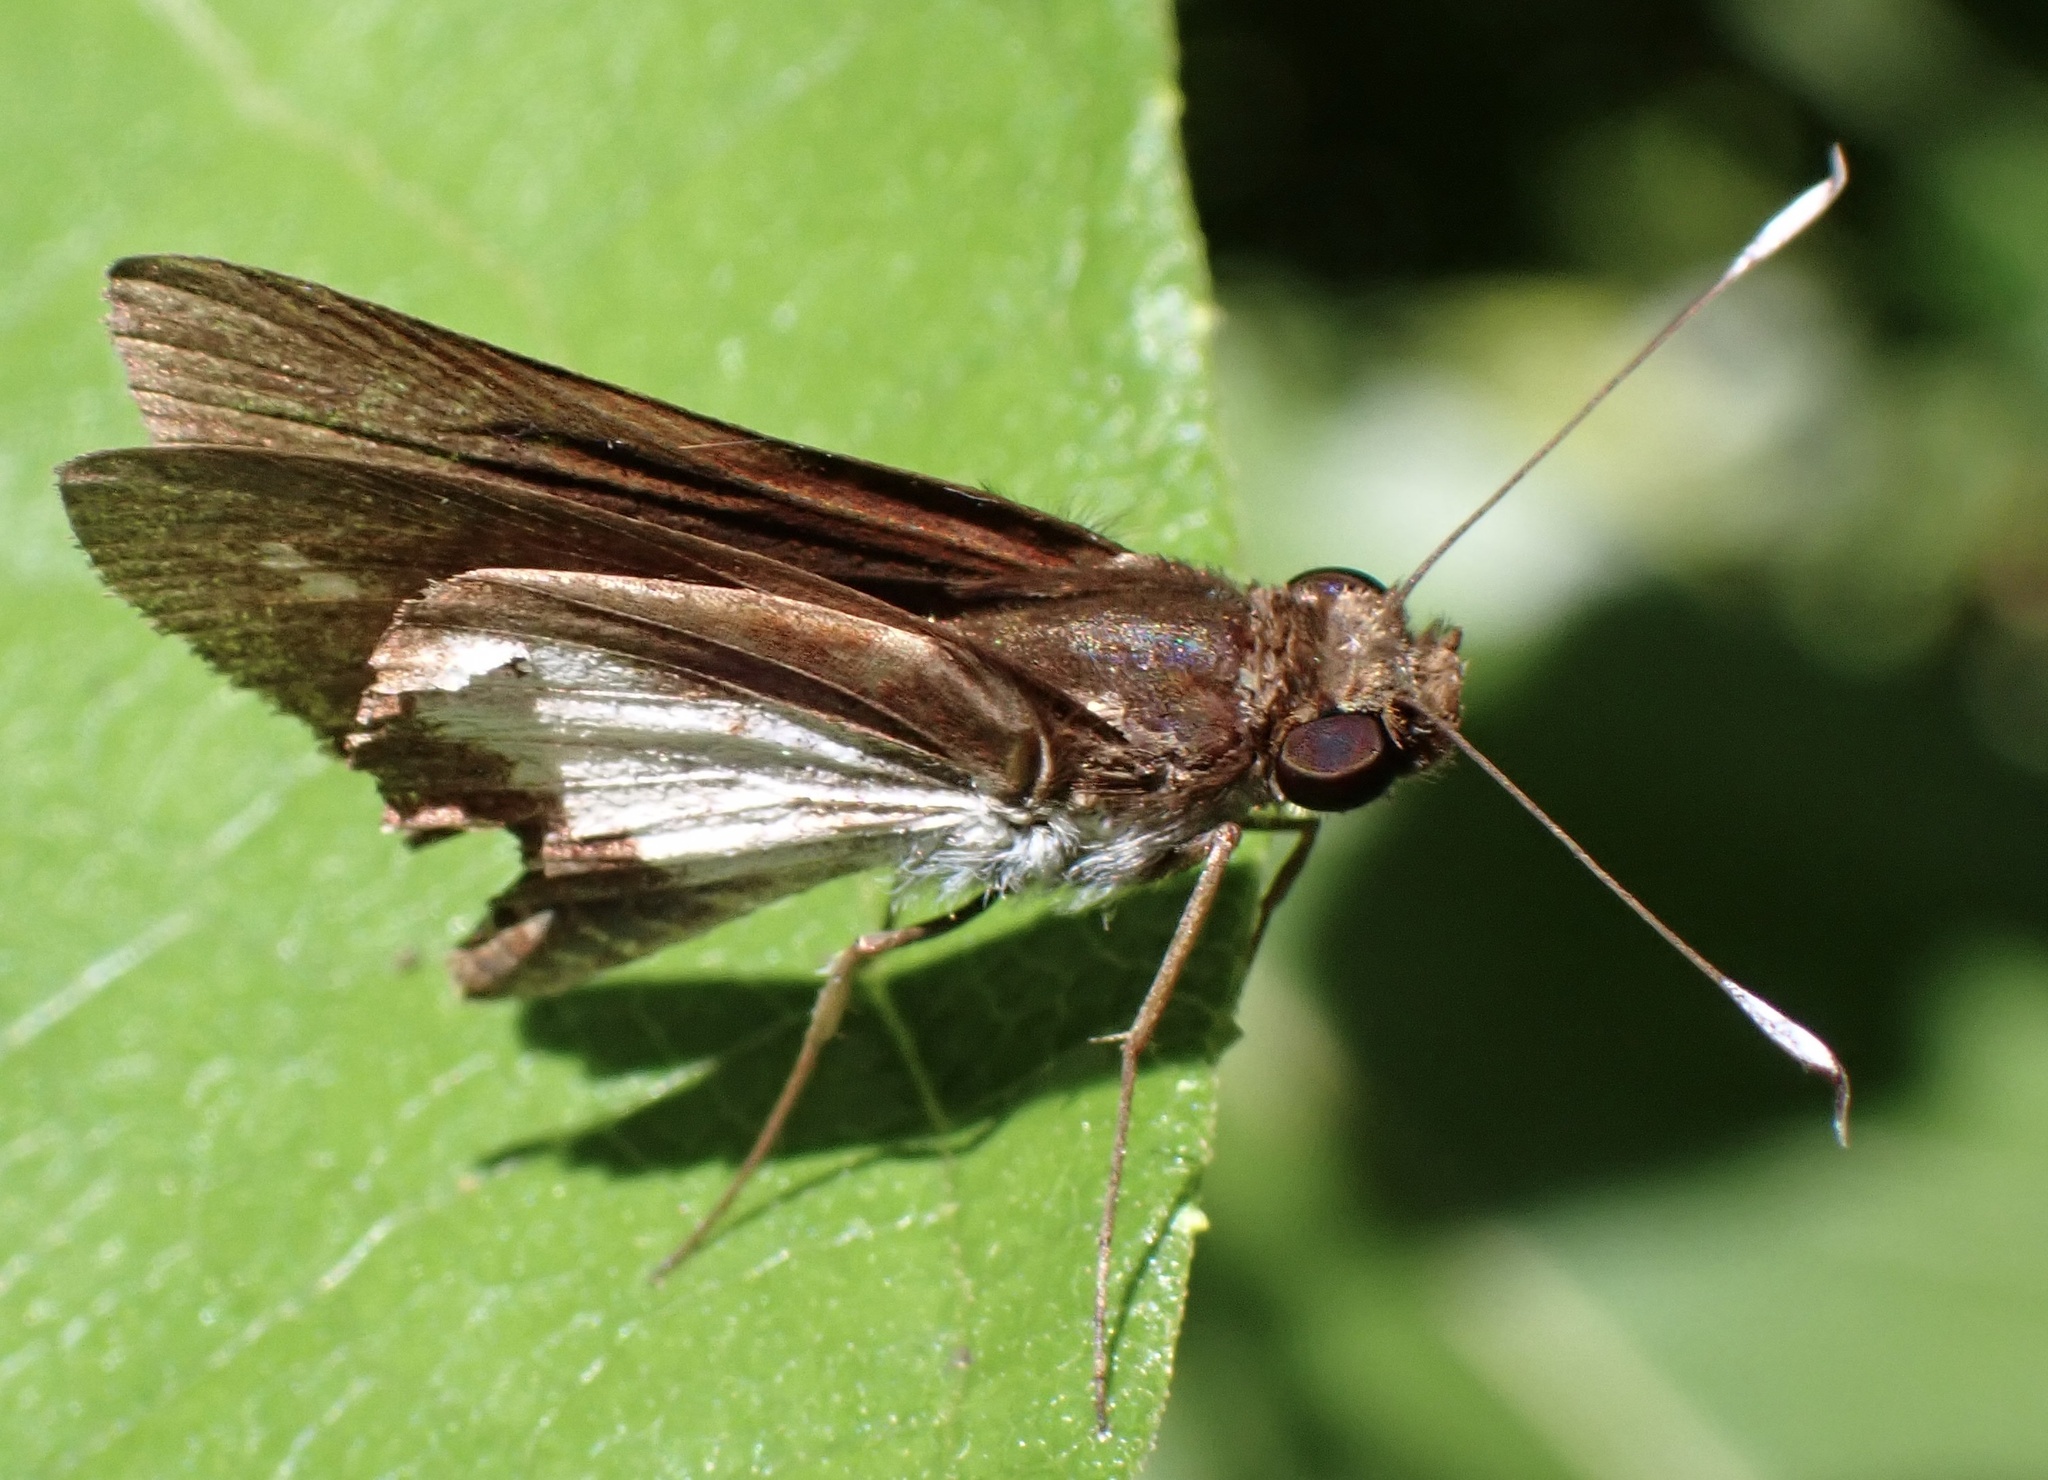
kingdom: Animalia
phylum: Arthropoda
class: Insecta
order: Lepidoptera
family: Hesperiidae
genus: Sabera
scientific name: Sabera caesina
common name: White-clubbed swift
